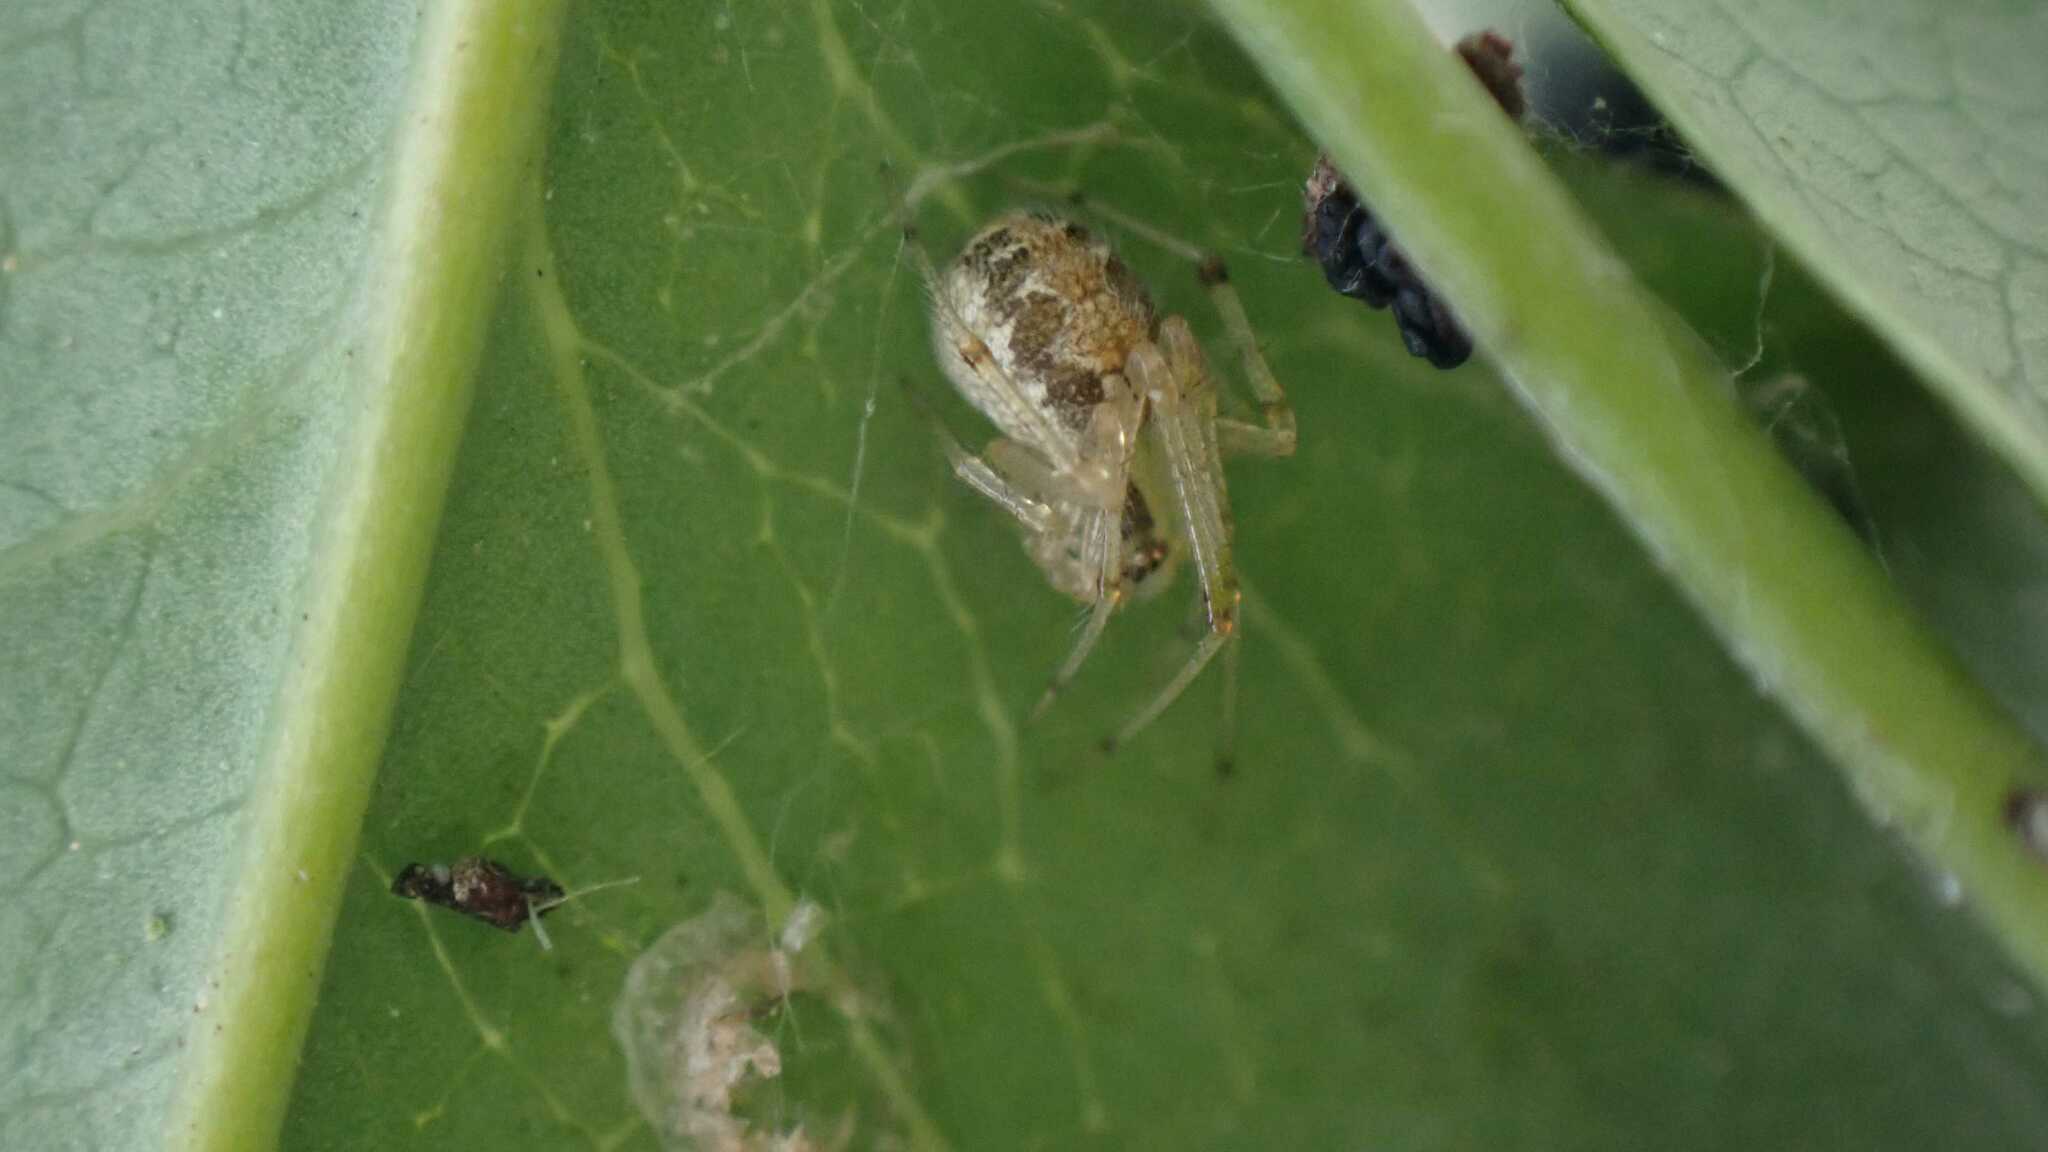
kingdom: Animalia
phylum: Arthropoda
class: Arachnida
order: Araneae
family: Theridiidae
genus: Theridion
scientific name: Theridion varians
